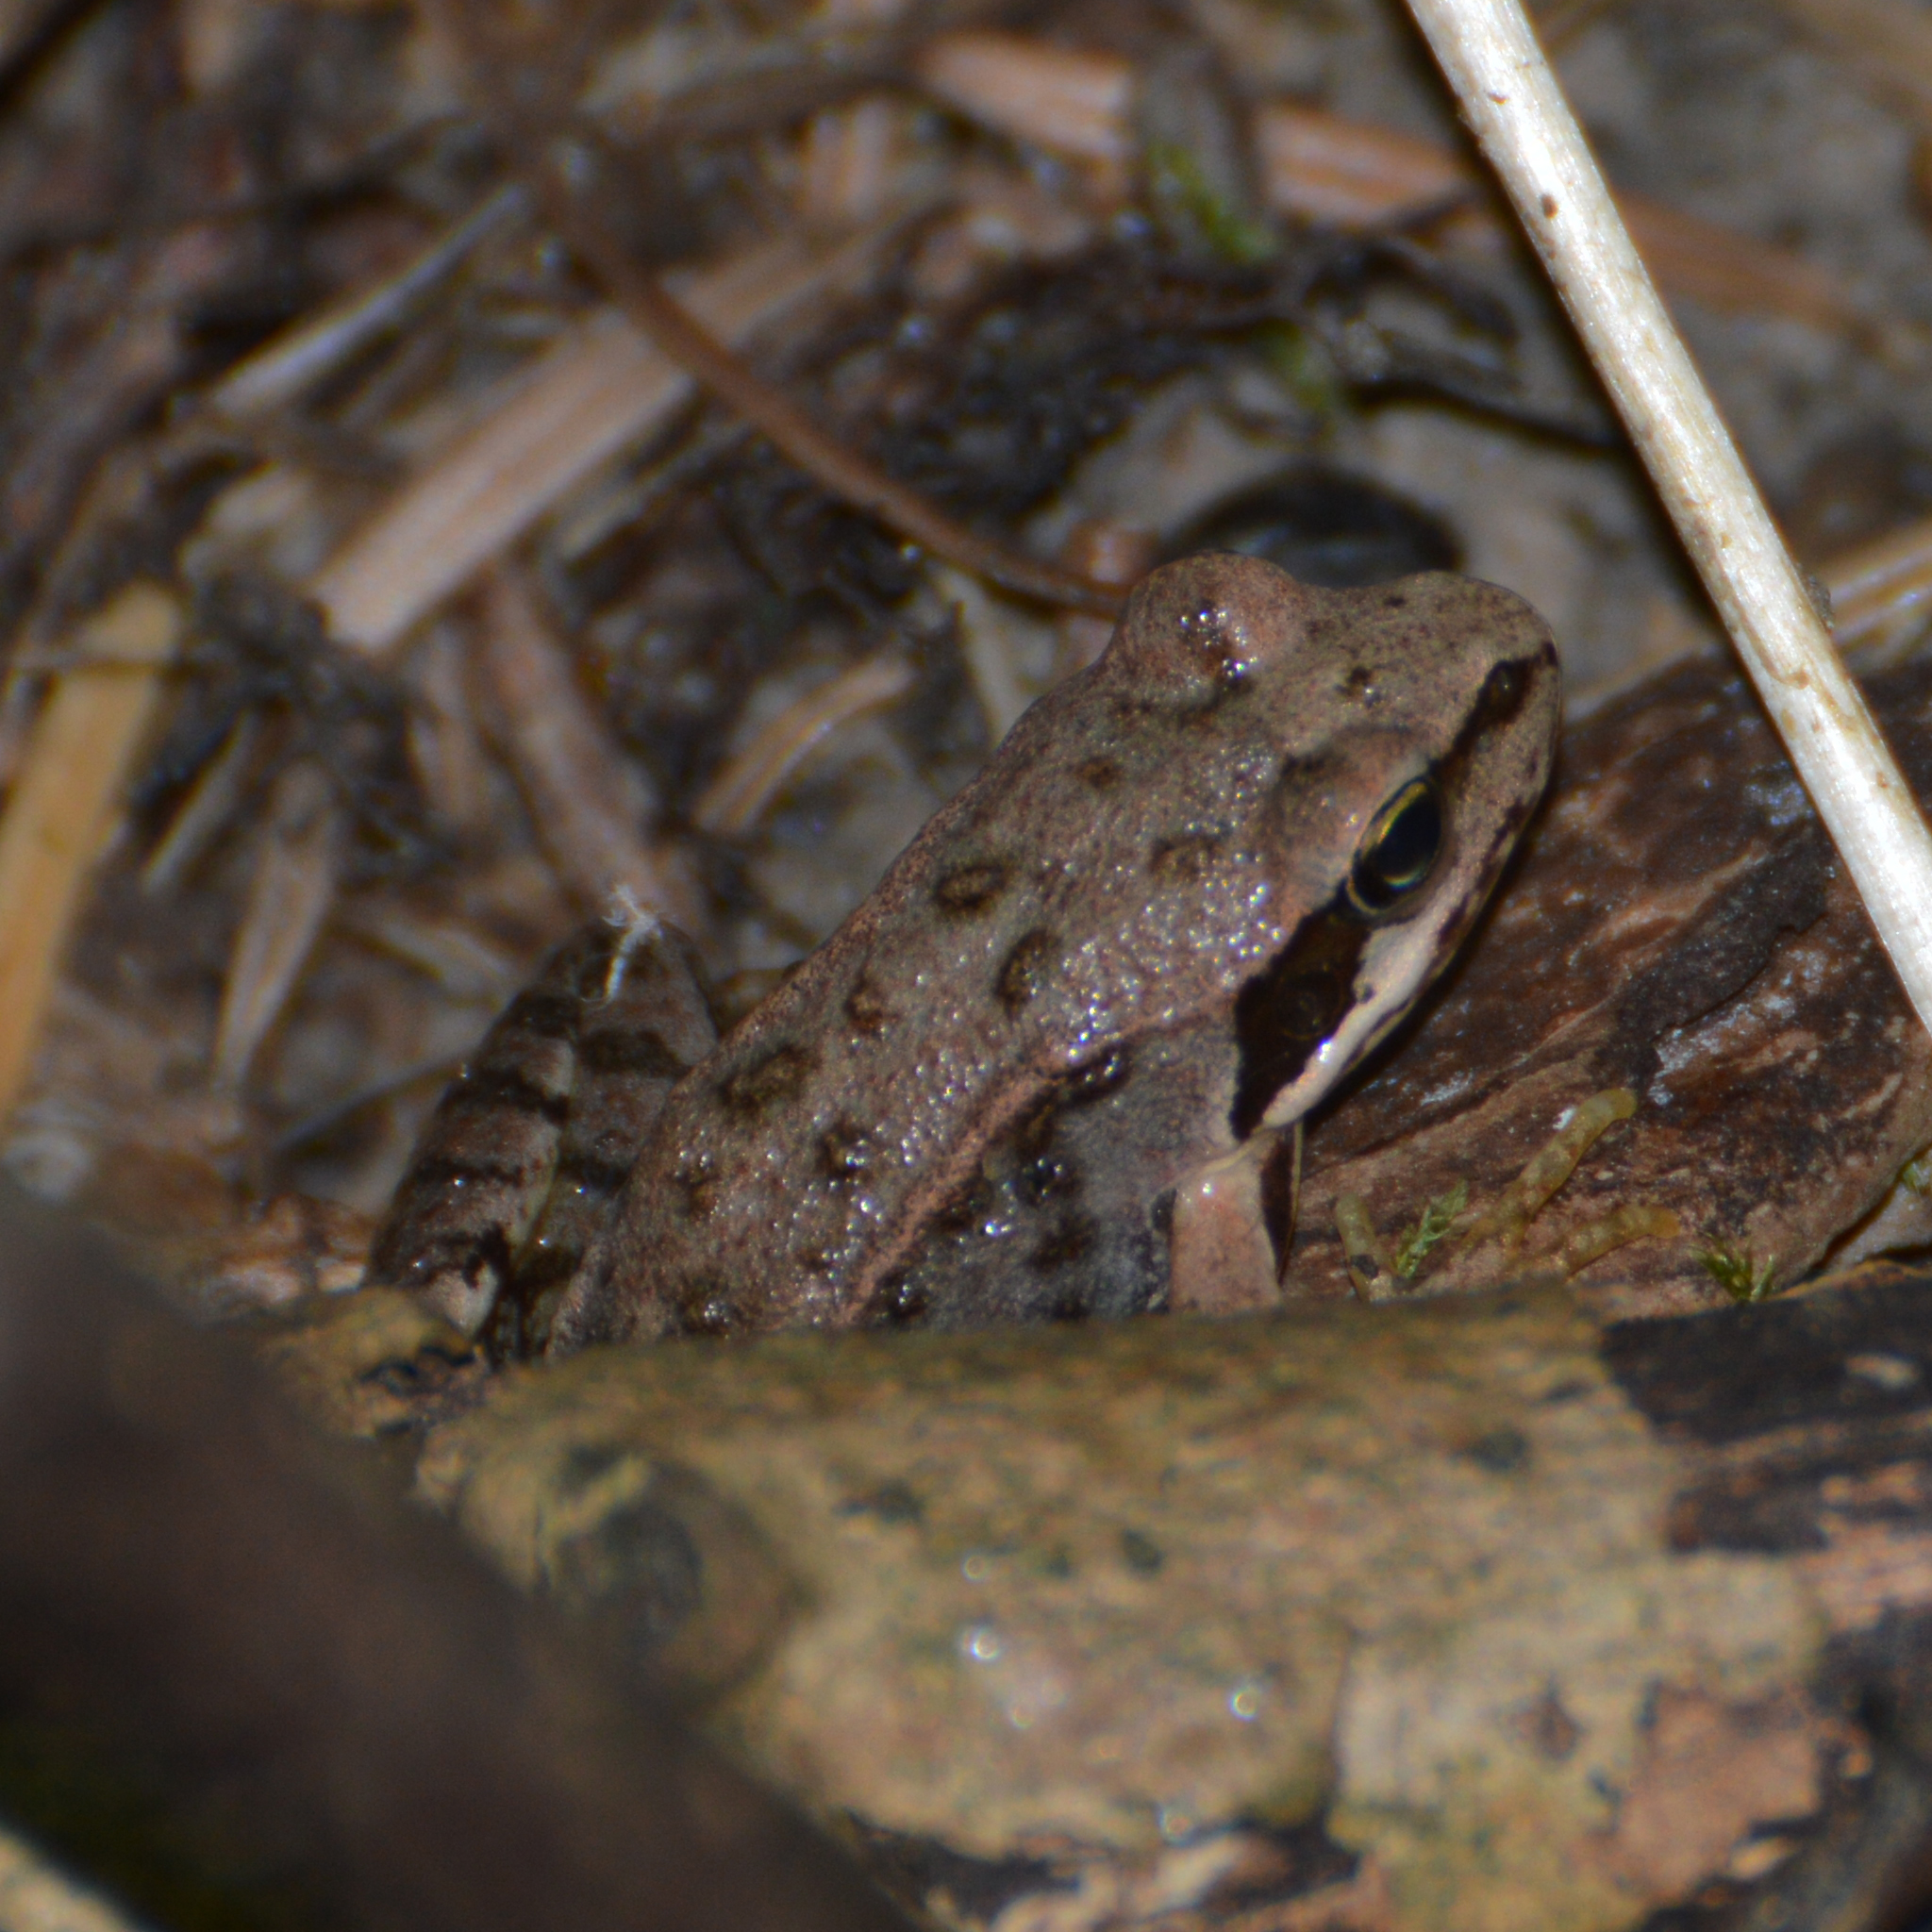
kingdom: Animalia
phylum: Chordata
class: Amphibia
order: Anura
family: Ranidae
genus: Rana
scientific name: Rana temporaria
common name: Common frog
